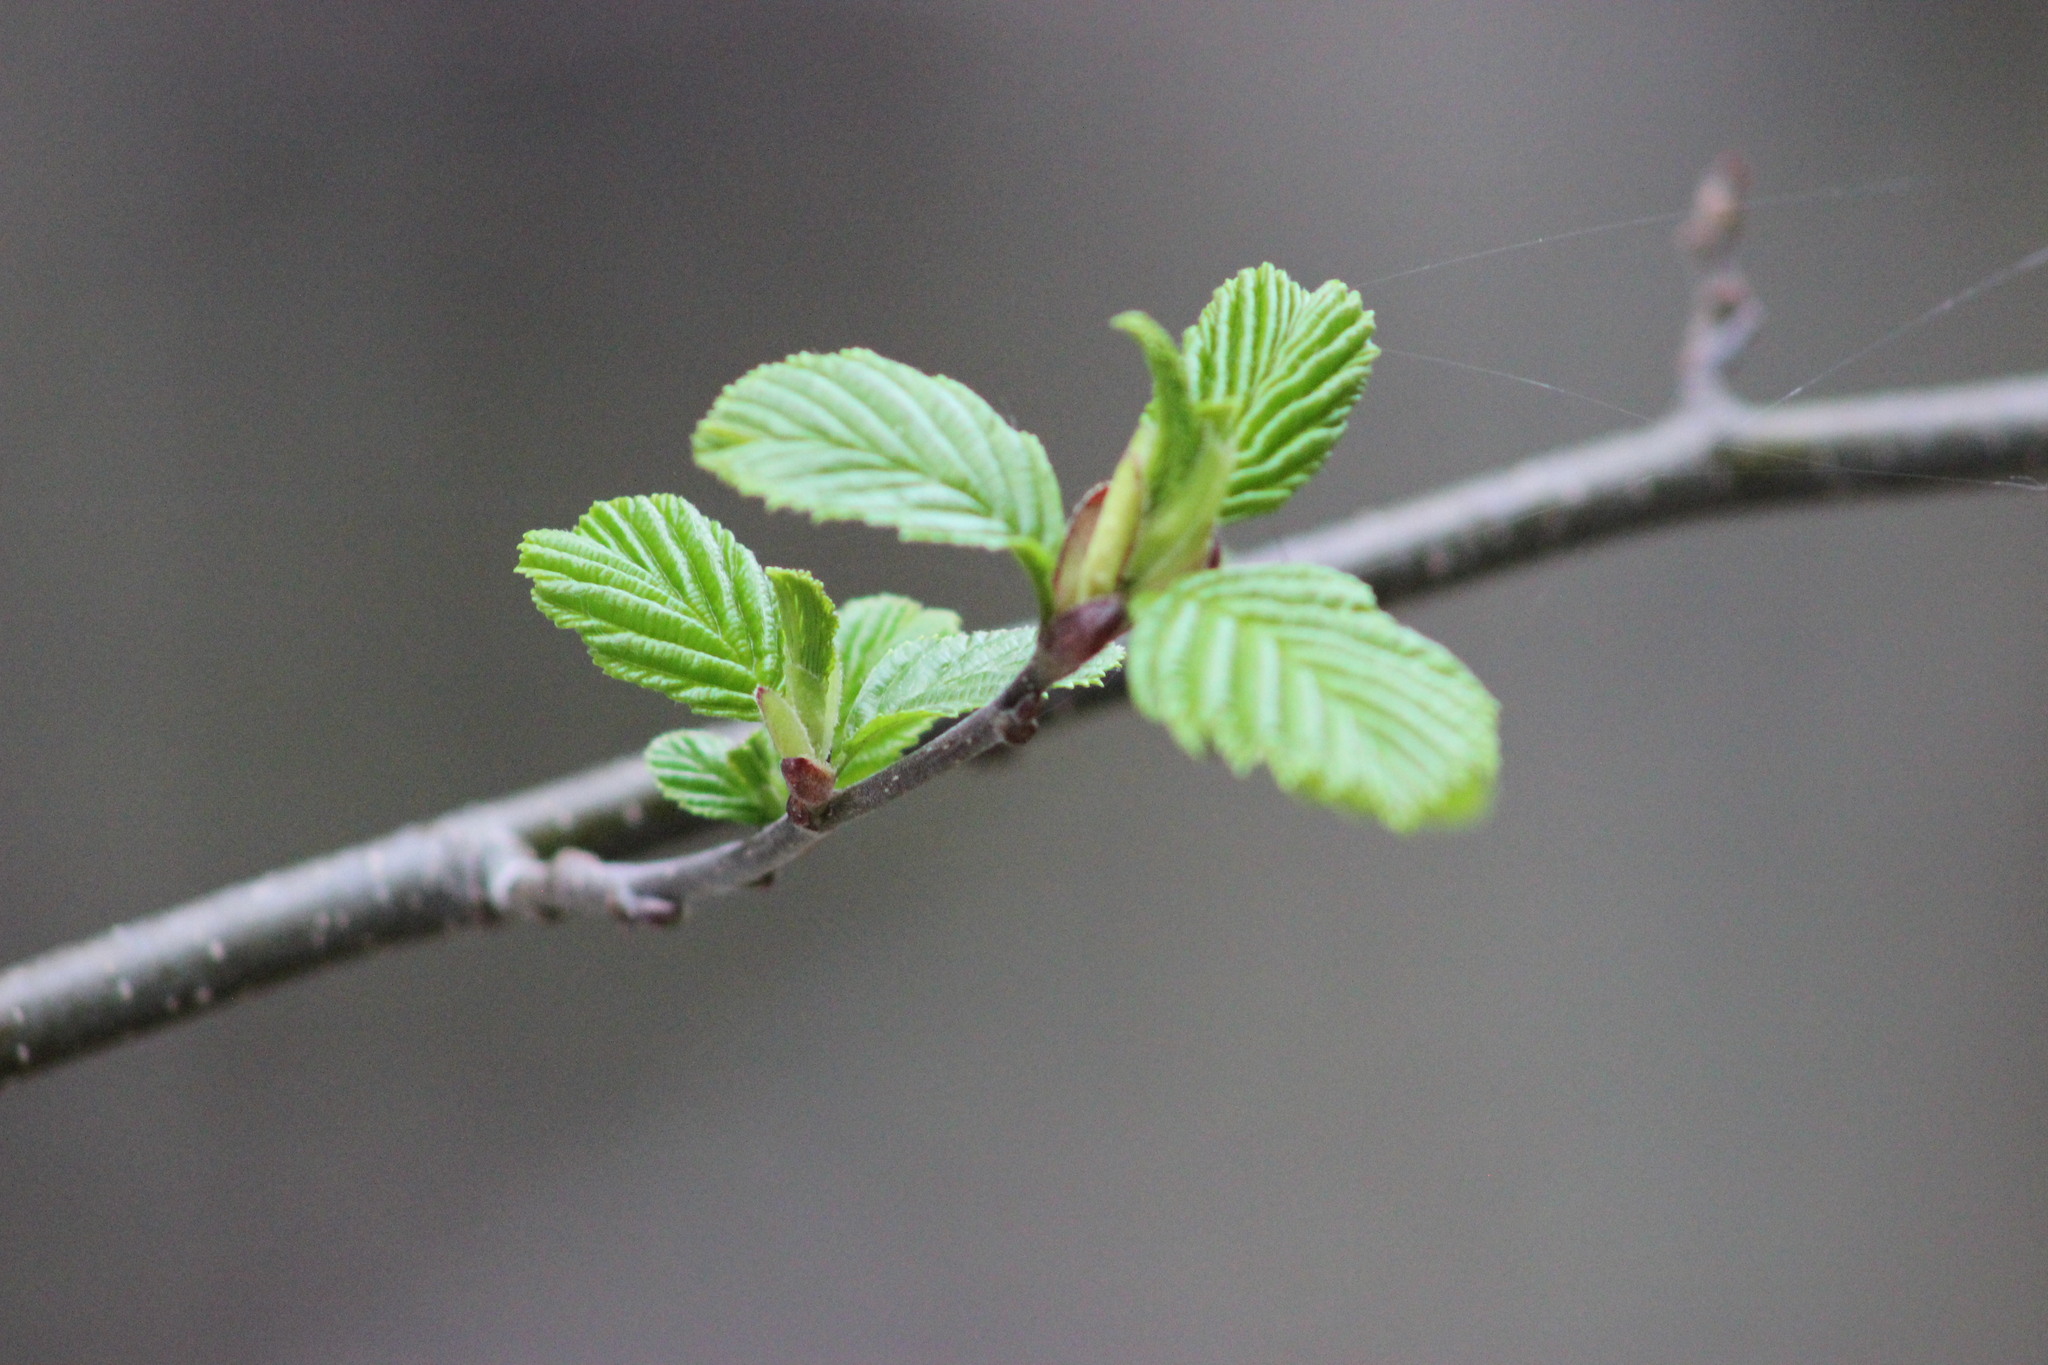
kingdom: Plantae
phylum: Tracheophyta
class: Magnoliopsida
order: Fagales
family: Betulaceae
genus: Alnus
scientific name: Alnus incana
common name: Grey alder
